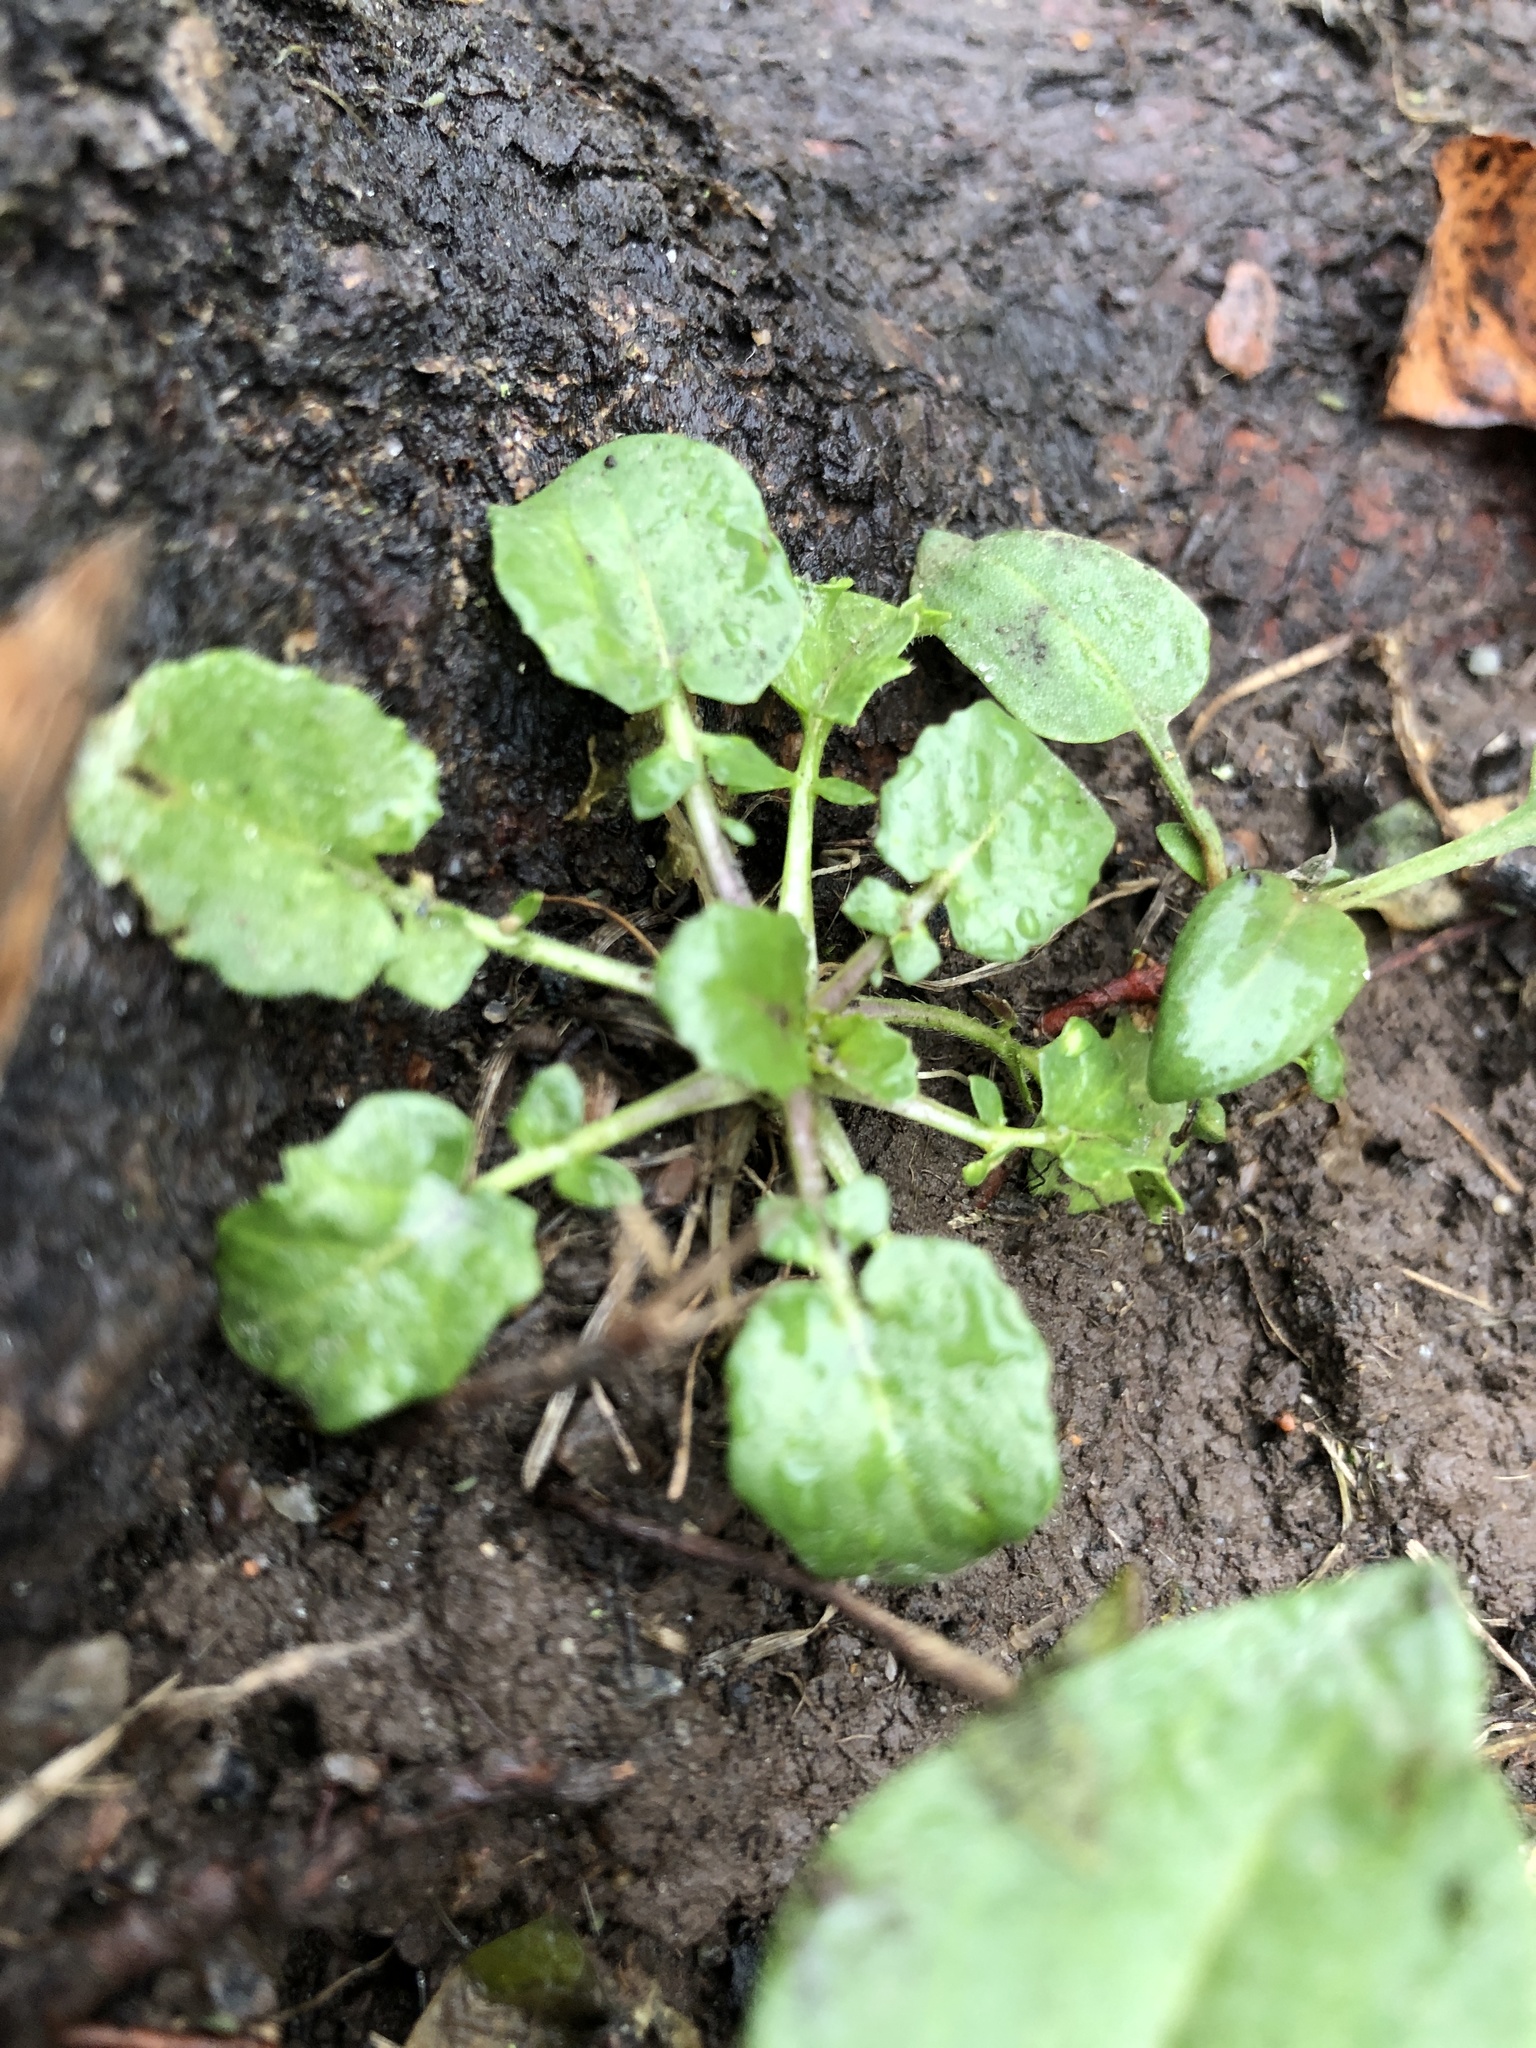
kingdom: Plantae
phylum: Tracheophyta
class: Magnoliopsida
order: Asterales
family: Asteraceae
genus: Lapsana
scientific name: Lapsana communis
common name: Nipplewort
